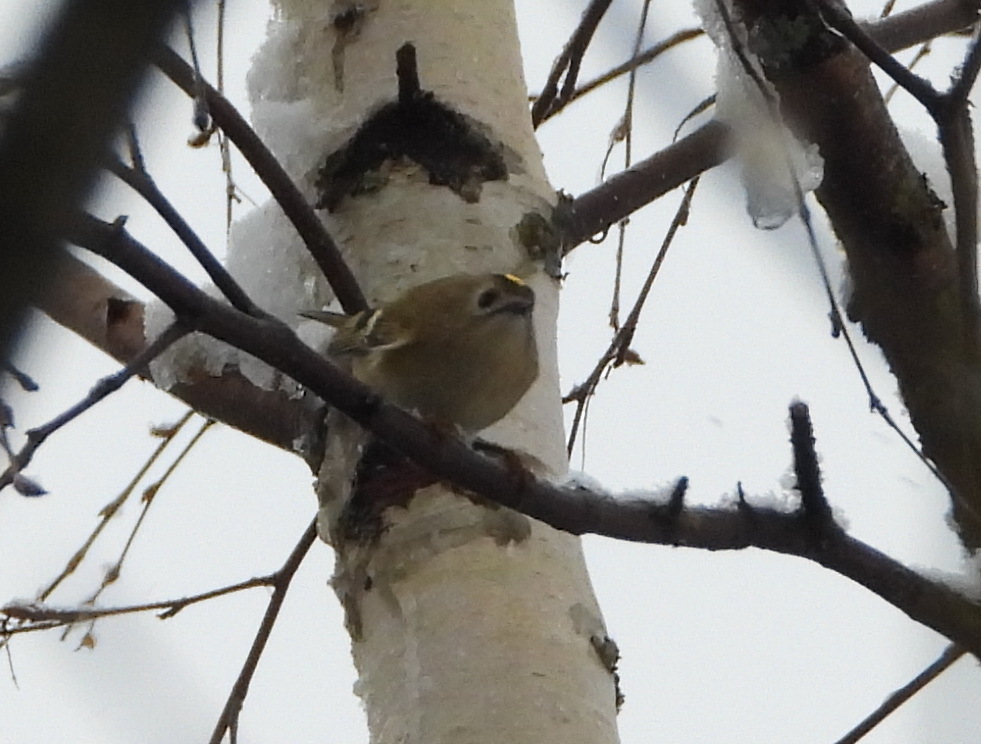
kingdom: Animalia
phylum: Chordata
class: Aves
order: Passeriformes
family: Regulidae
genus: Regulus
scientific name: Regulus regulus
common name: Goldcrest
